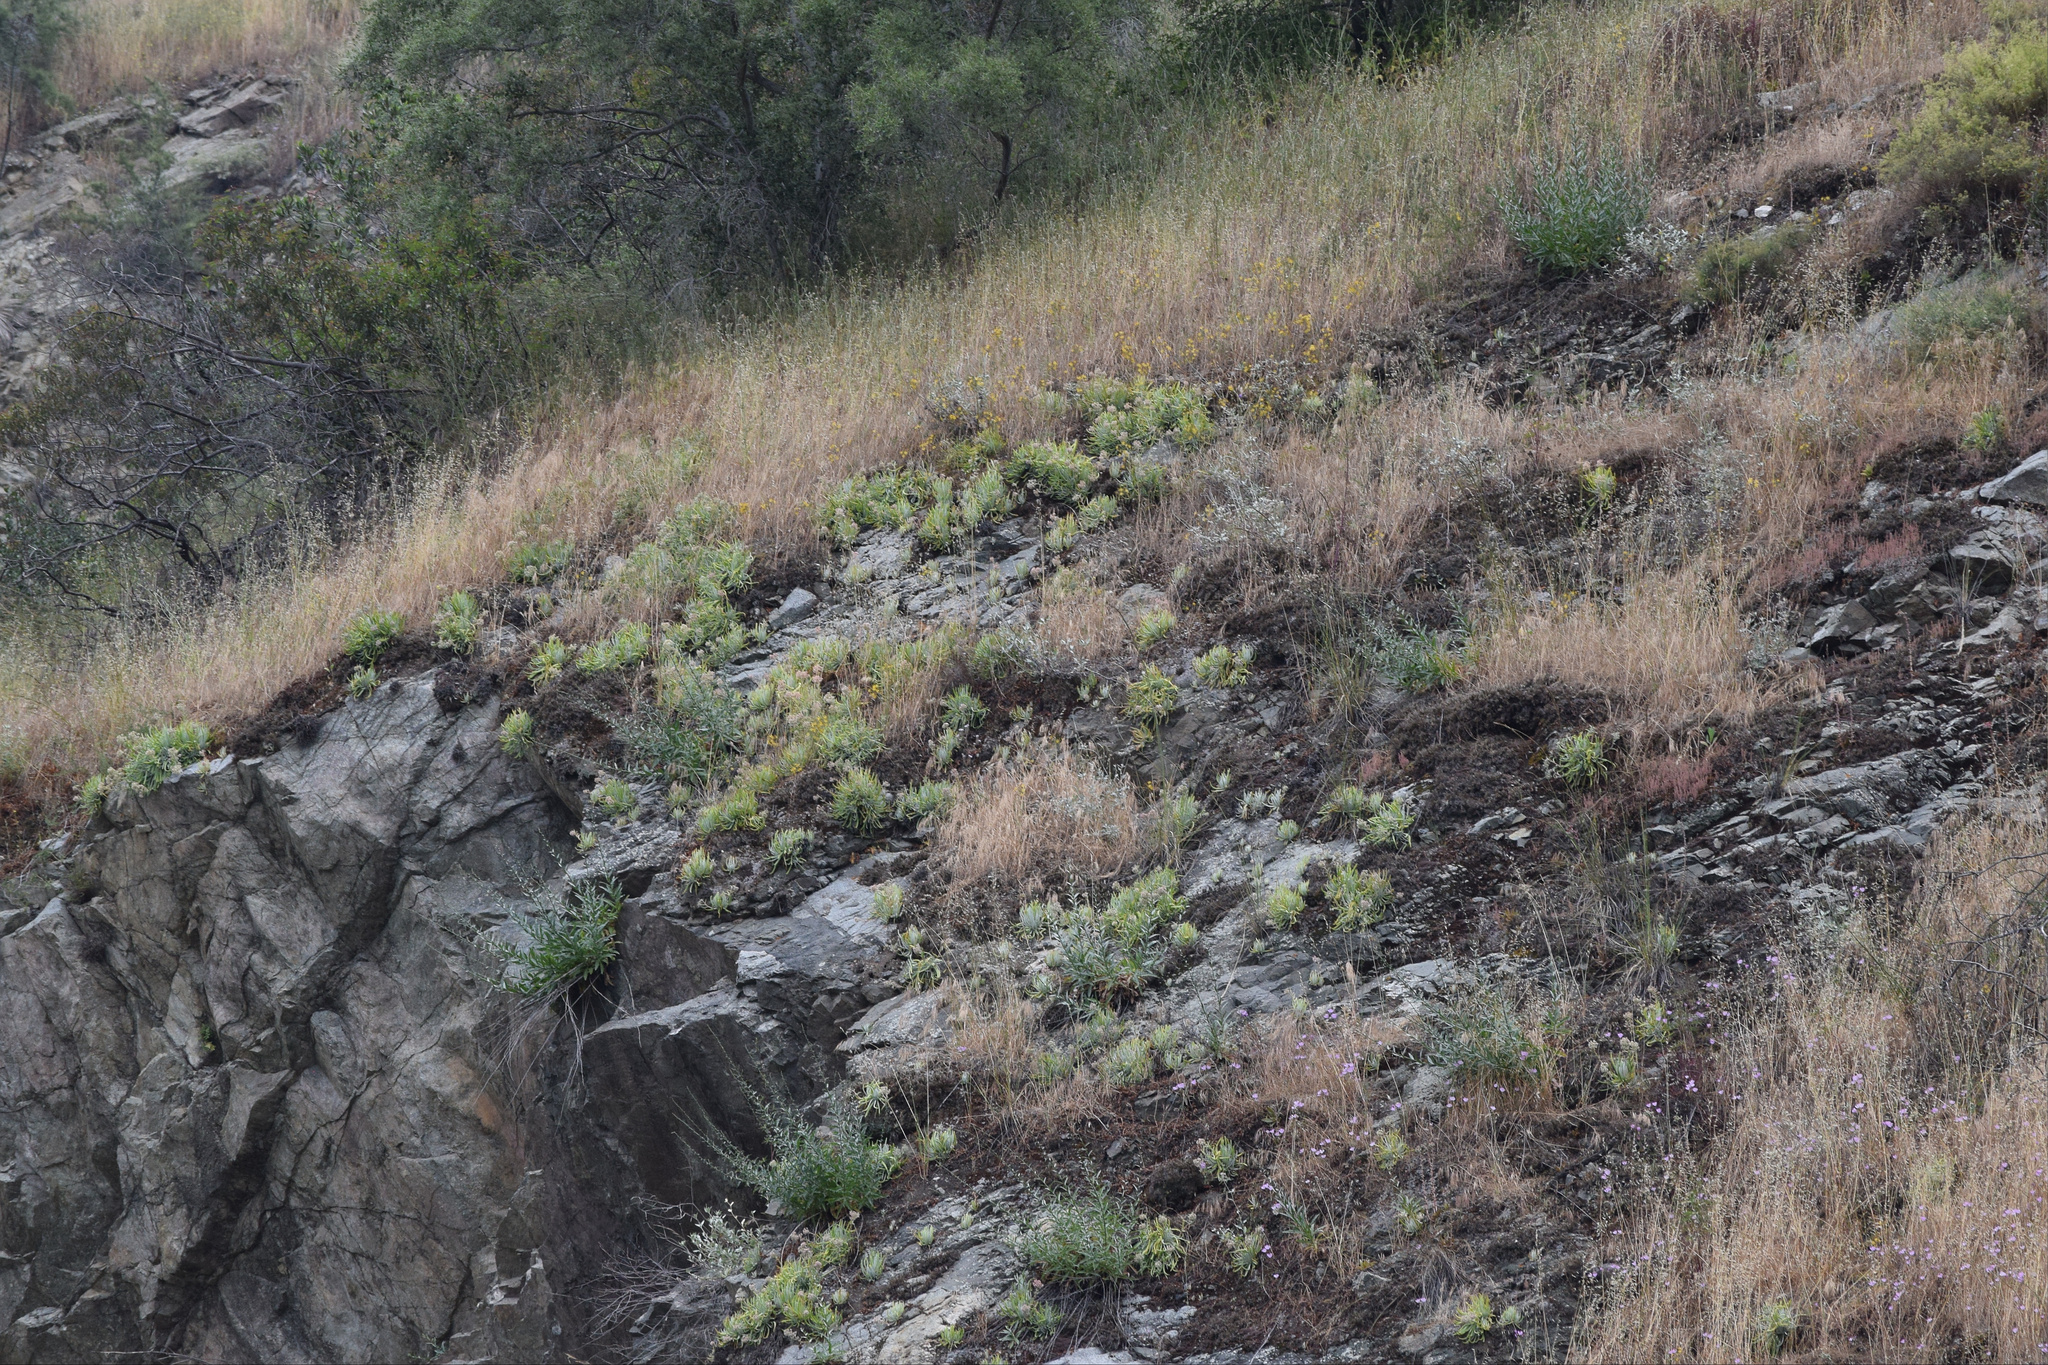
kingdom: Plantae
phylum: Tracheophyta
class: Magnoliopsida
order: Saxifragales
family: Crassulaceae
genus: Dudleya
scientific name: Dudleya densiflora
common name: San gabriel mountains dudleya
